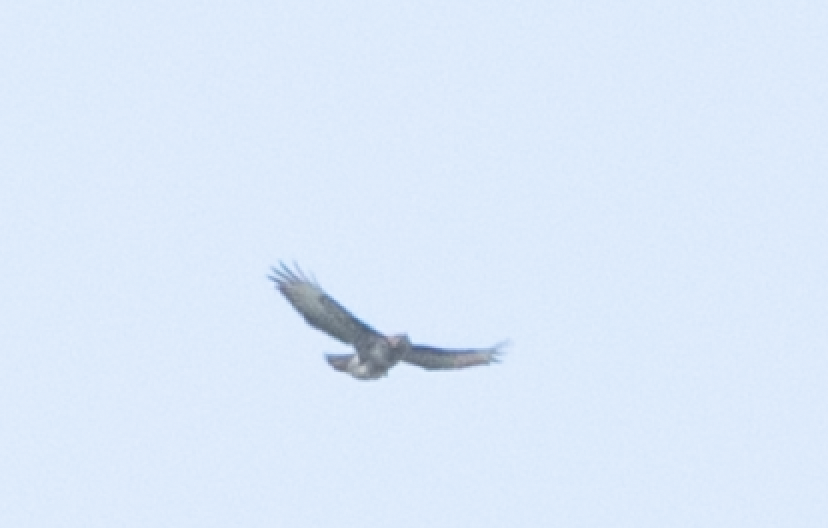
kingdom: Animalia
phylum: Chordata
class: Aves
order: Accipitriformes
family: Accipitridae
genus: Buteo
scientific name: Buteo buteo
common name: Common buzzard
